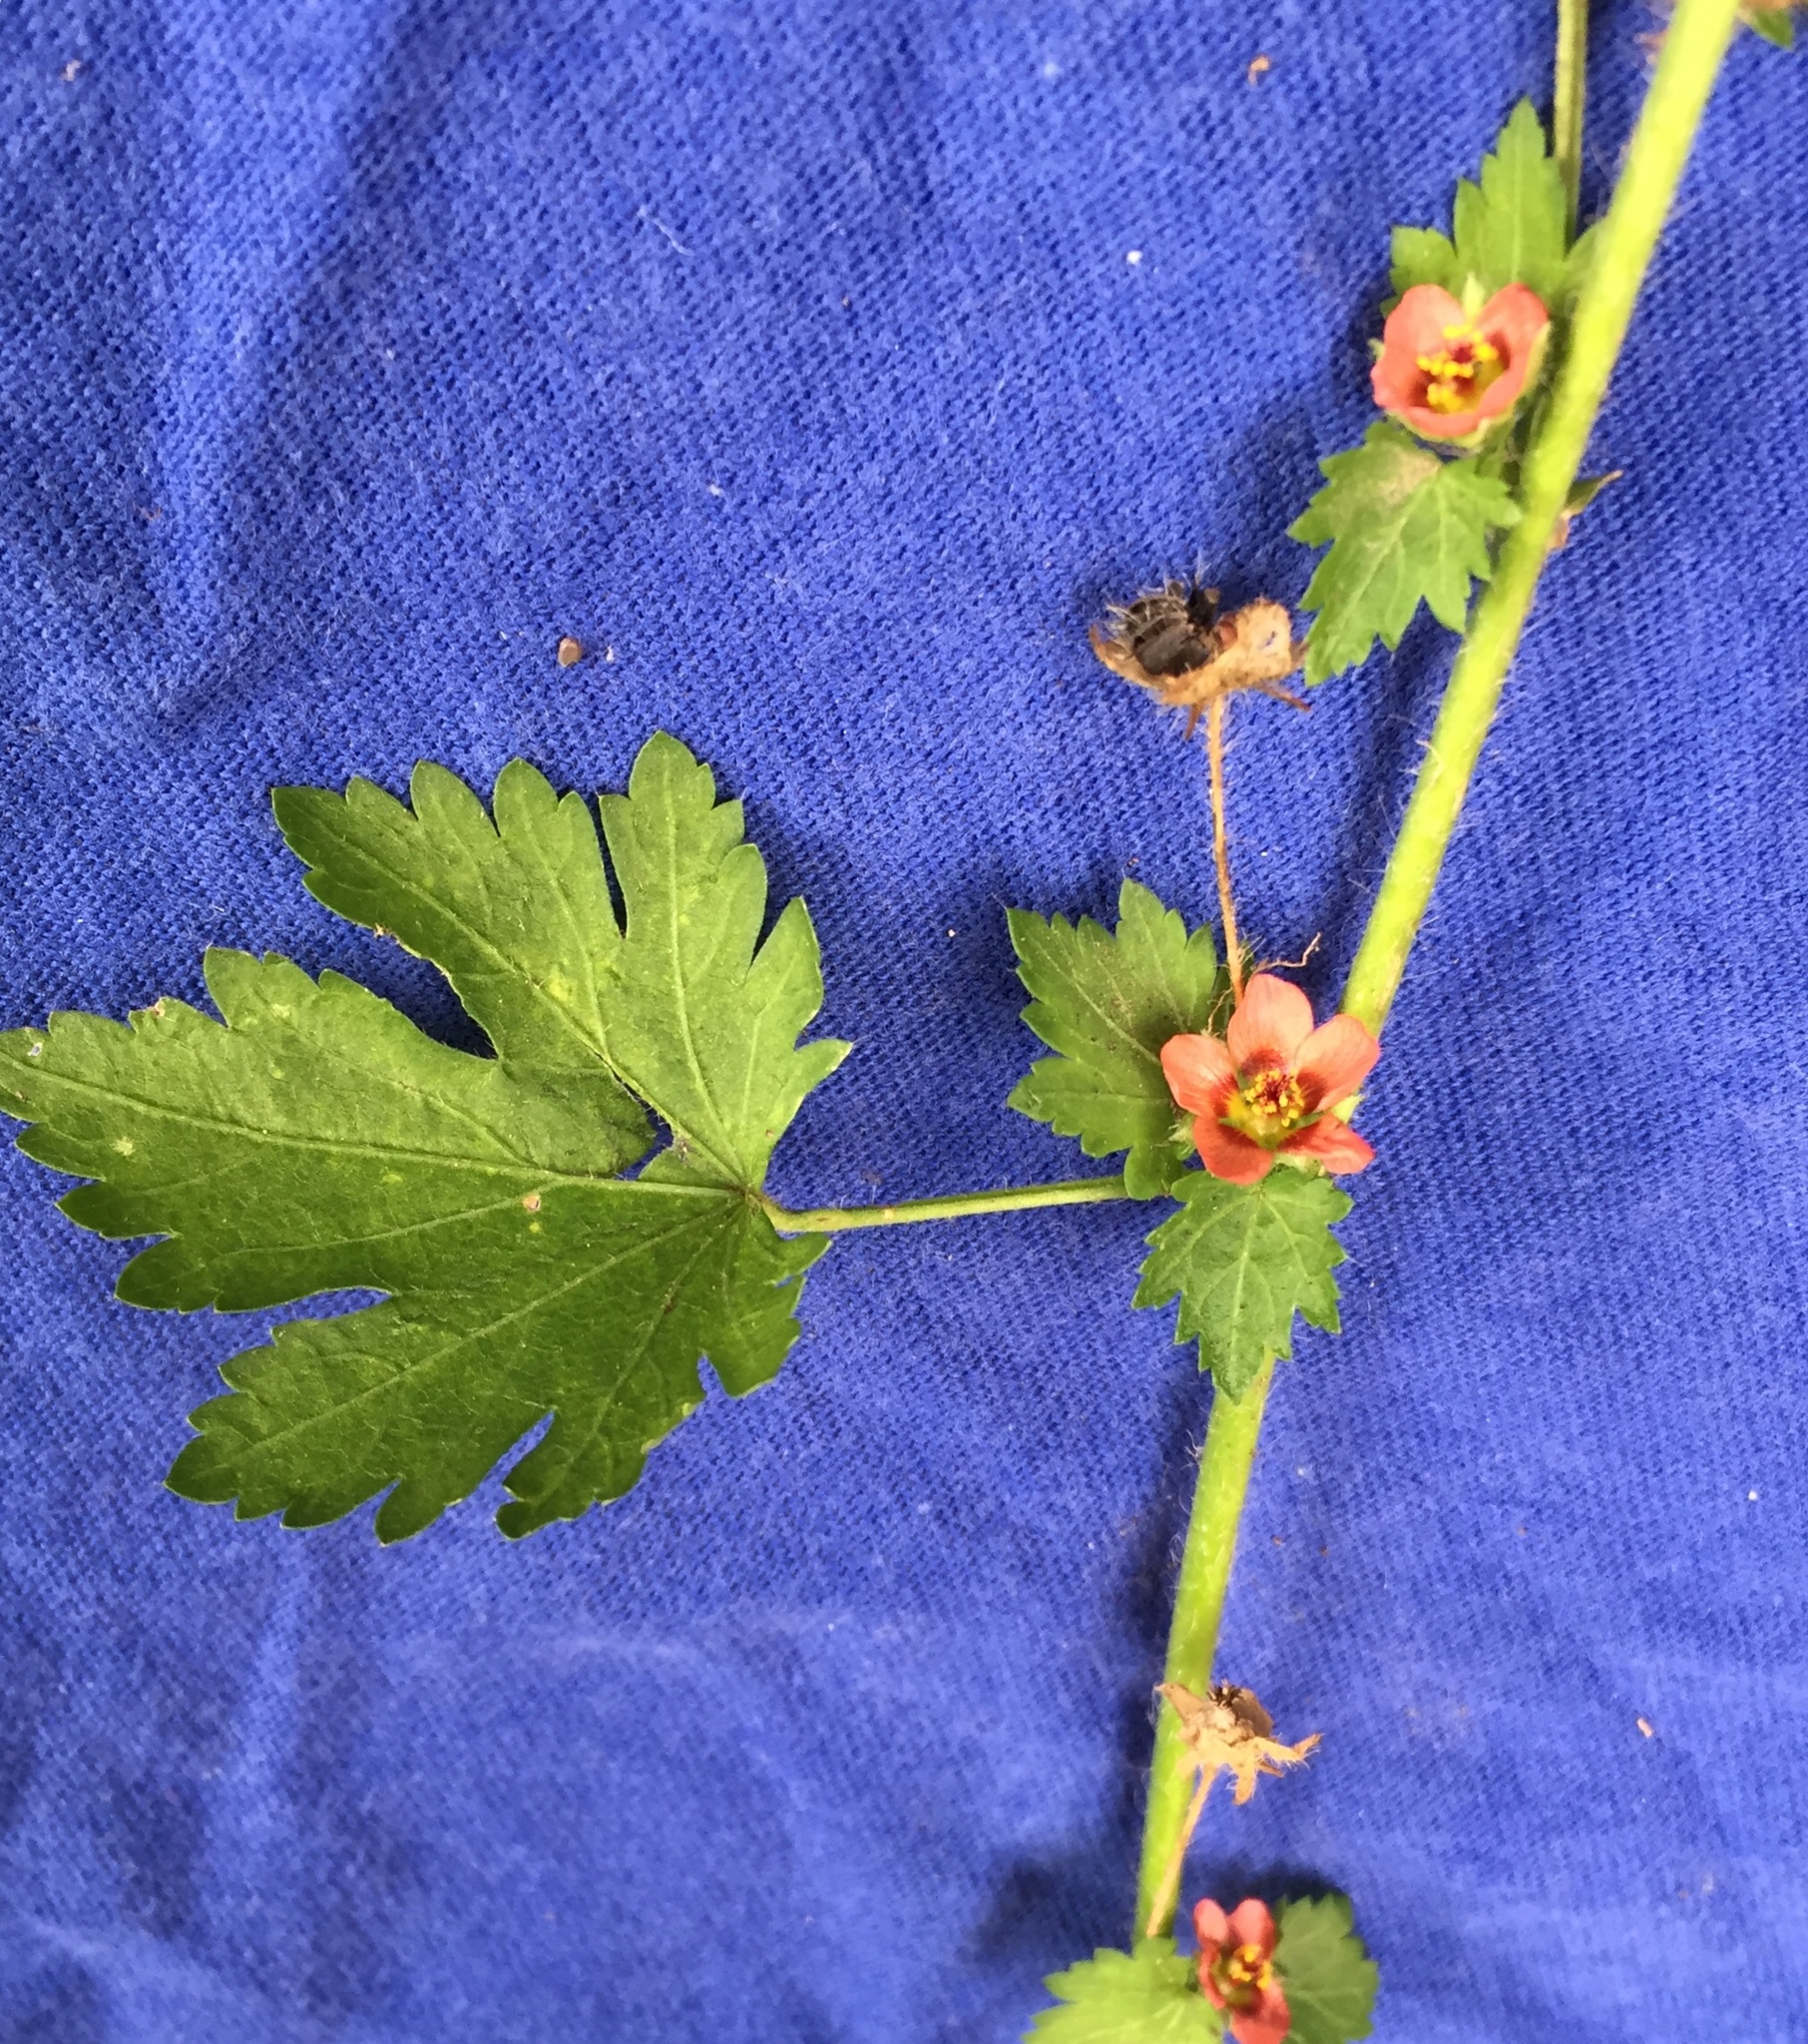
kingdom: Plantae
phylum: Tracheophyta
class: Magnoliopsida
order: Malvales
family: Malvaceae
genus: Modiola
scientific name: Modiola caroliniana
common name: Carolina bristlemallow
